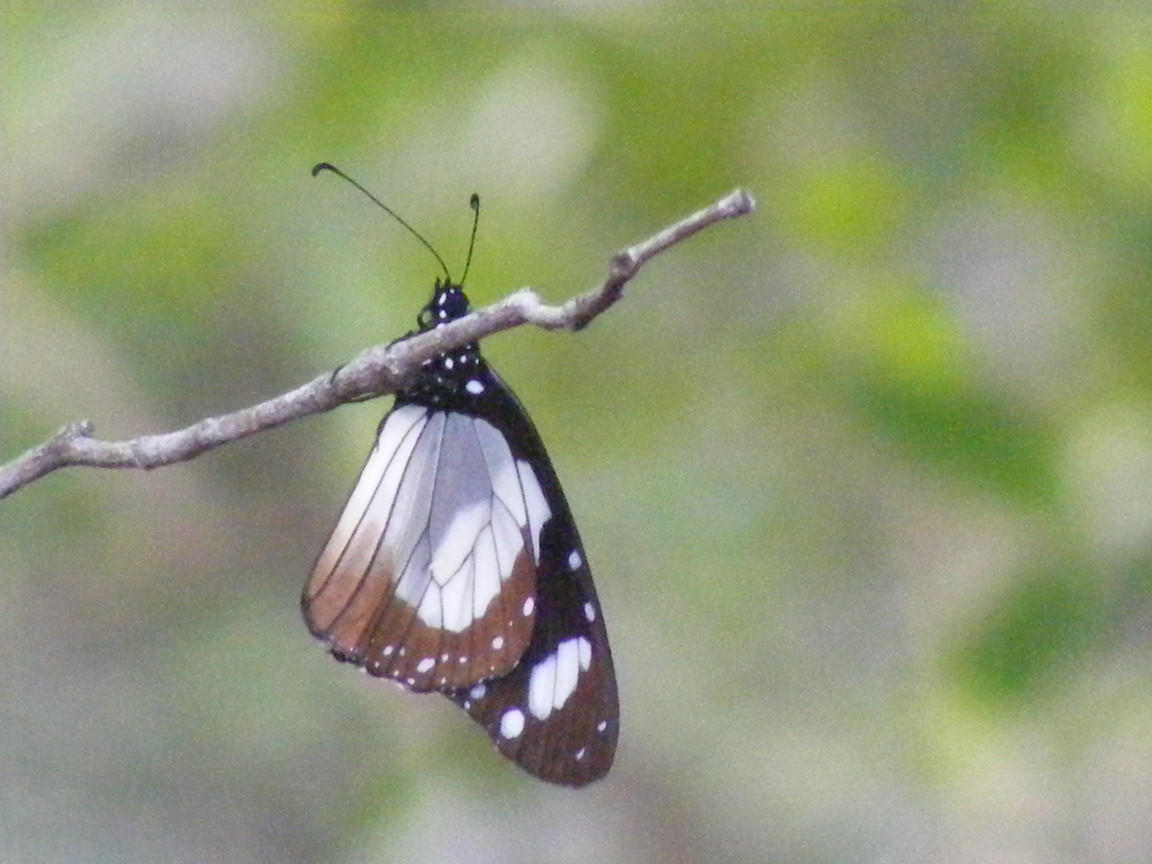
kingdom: Animalia
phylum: Arthropoda
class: Insecta
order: Lepidoptera
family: Nymphalidae
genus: Amauris
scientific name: Amauris ochlea
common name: Novice
